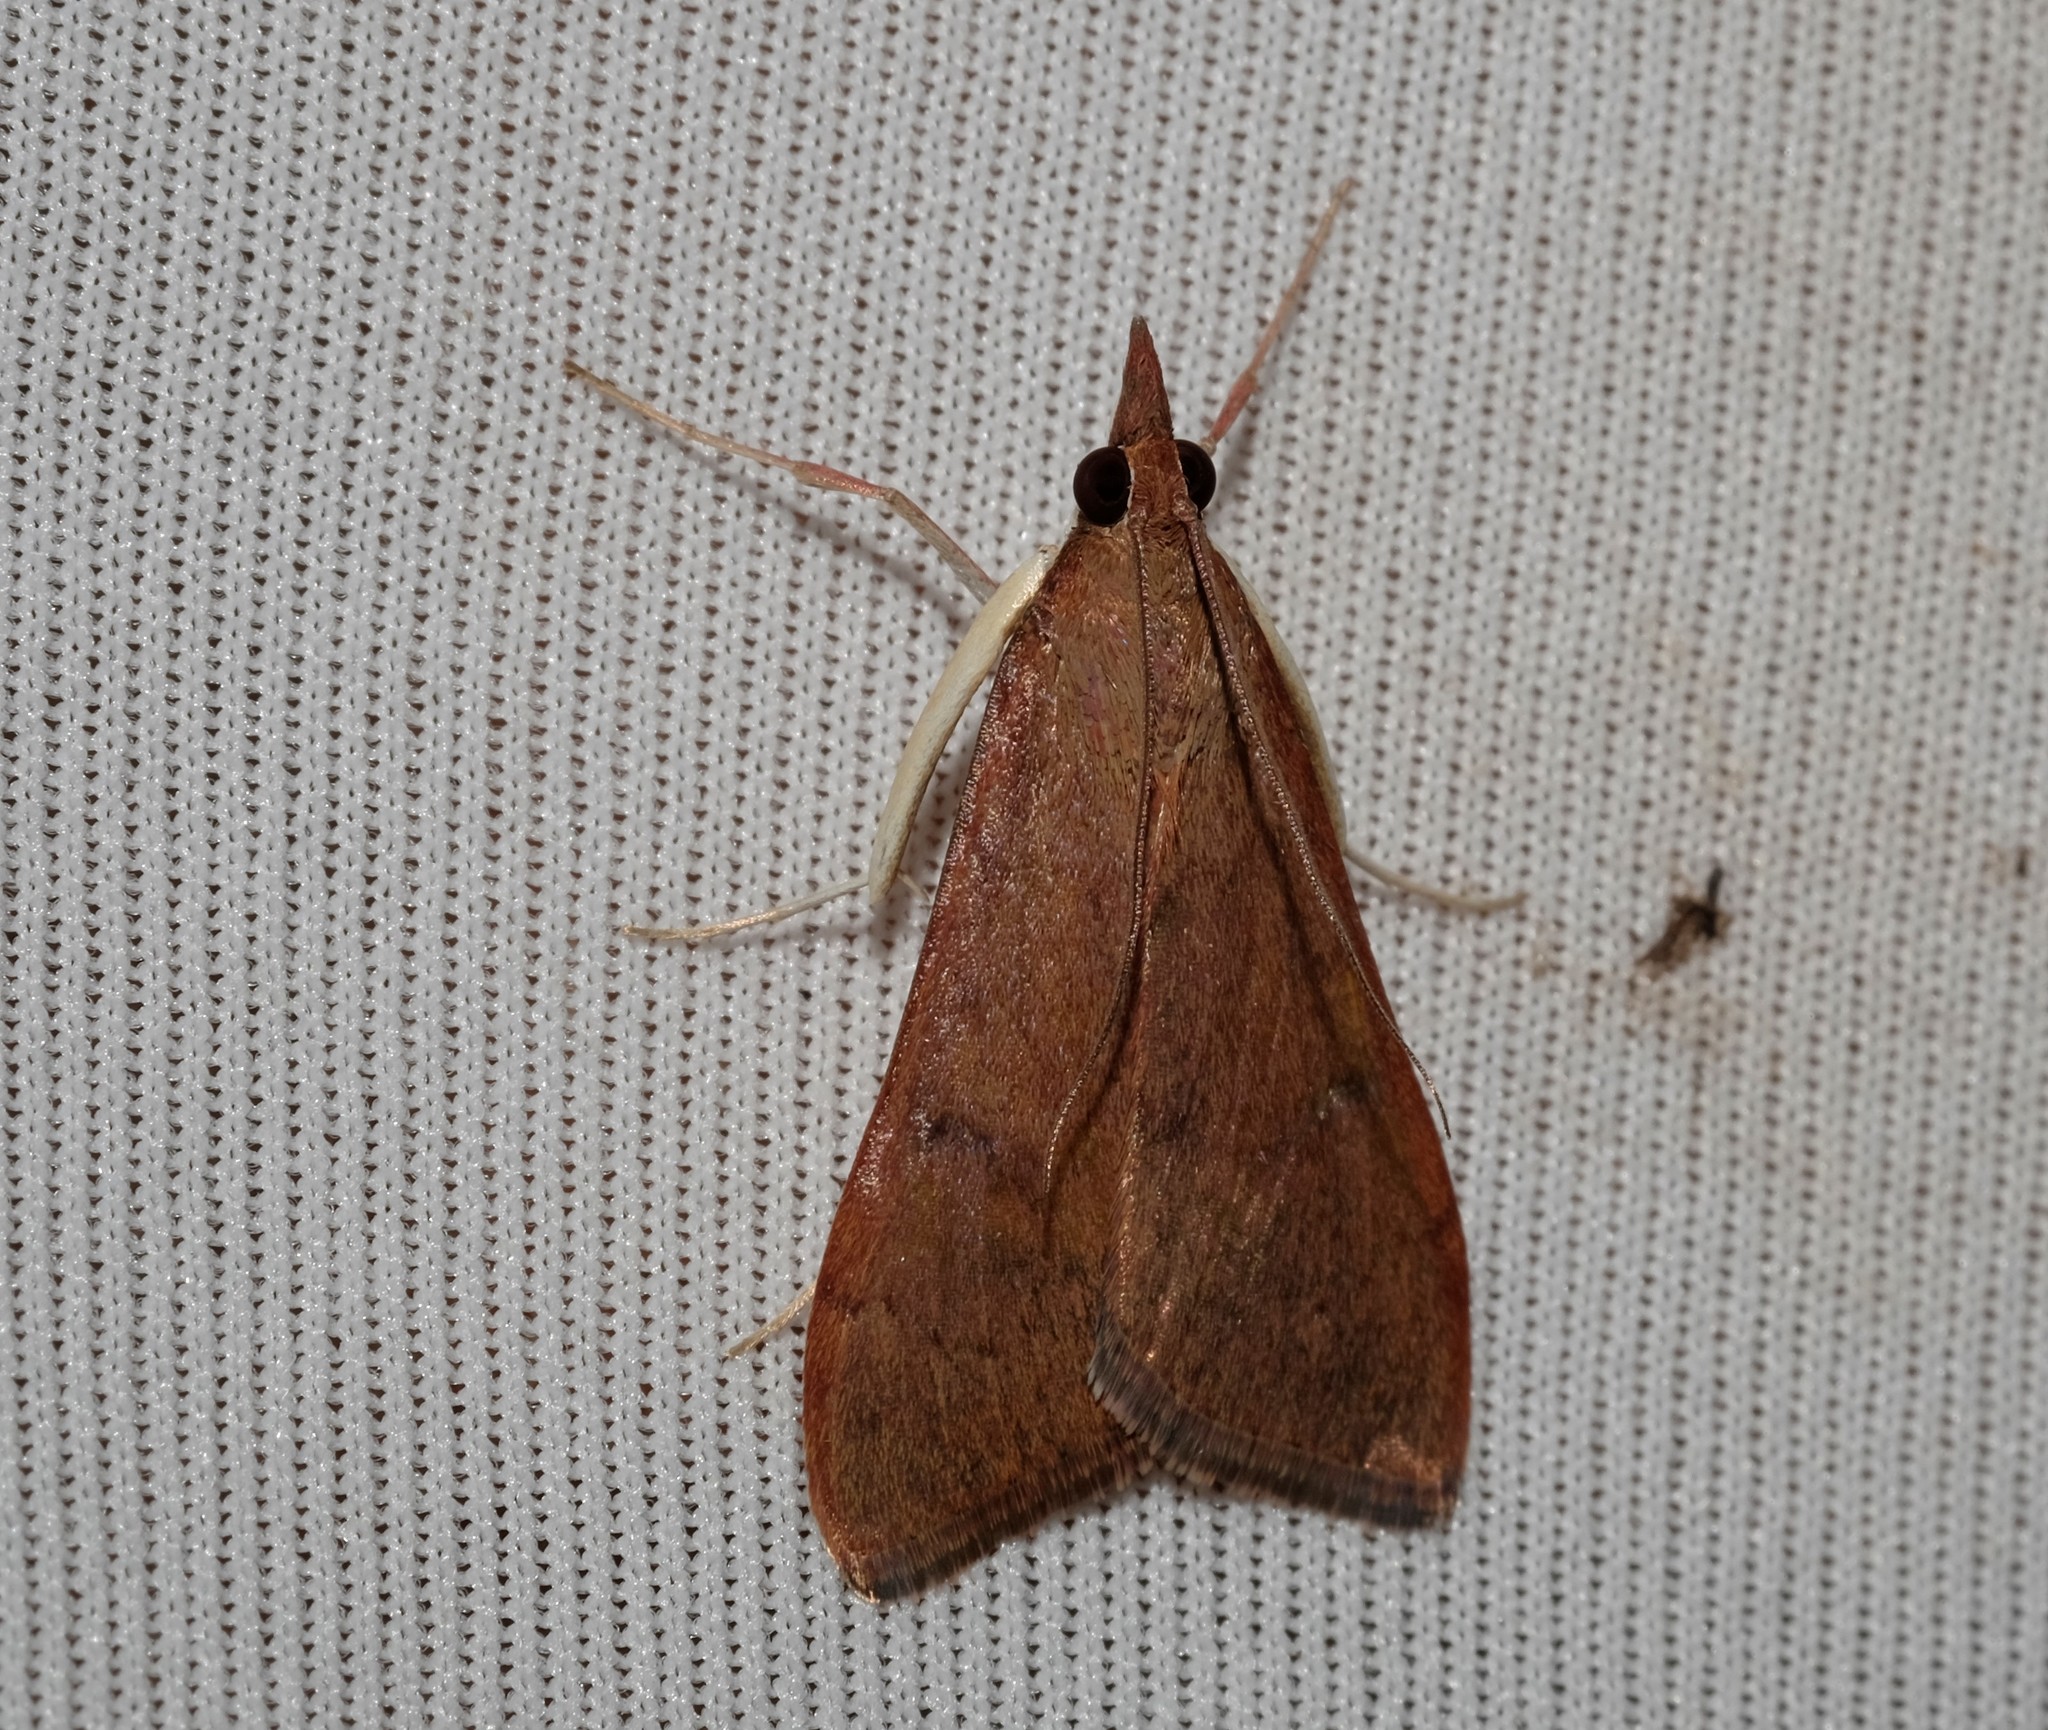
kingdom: Animalia
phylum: Arthropoda
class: Insecta
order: Lepidoptera
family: Crambidae
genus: Uresiphita
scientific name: Uresiphita ornithopteralis
